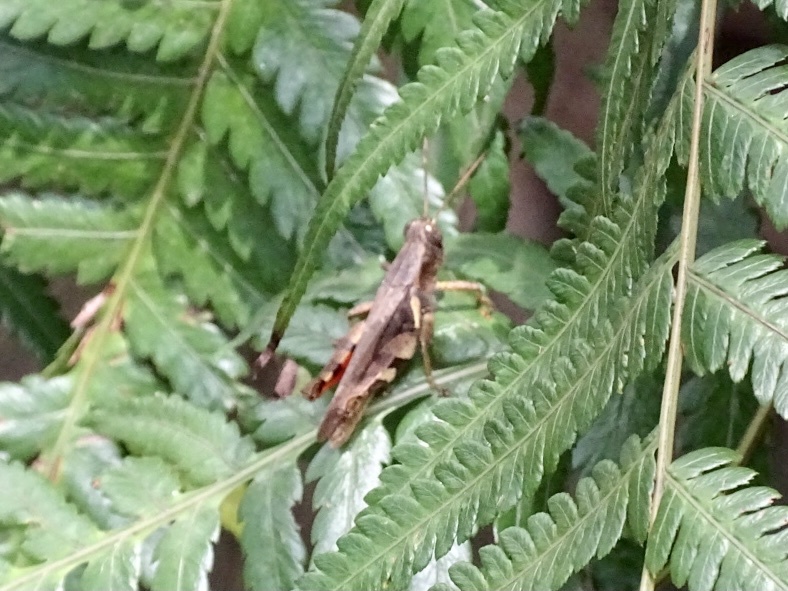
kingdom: Animalia
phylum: Arthropoda
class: Insecta
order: Orthoptera
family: Acrididae
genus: Xenocatantops
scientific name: Xenocatantops humile
